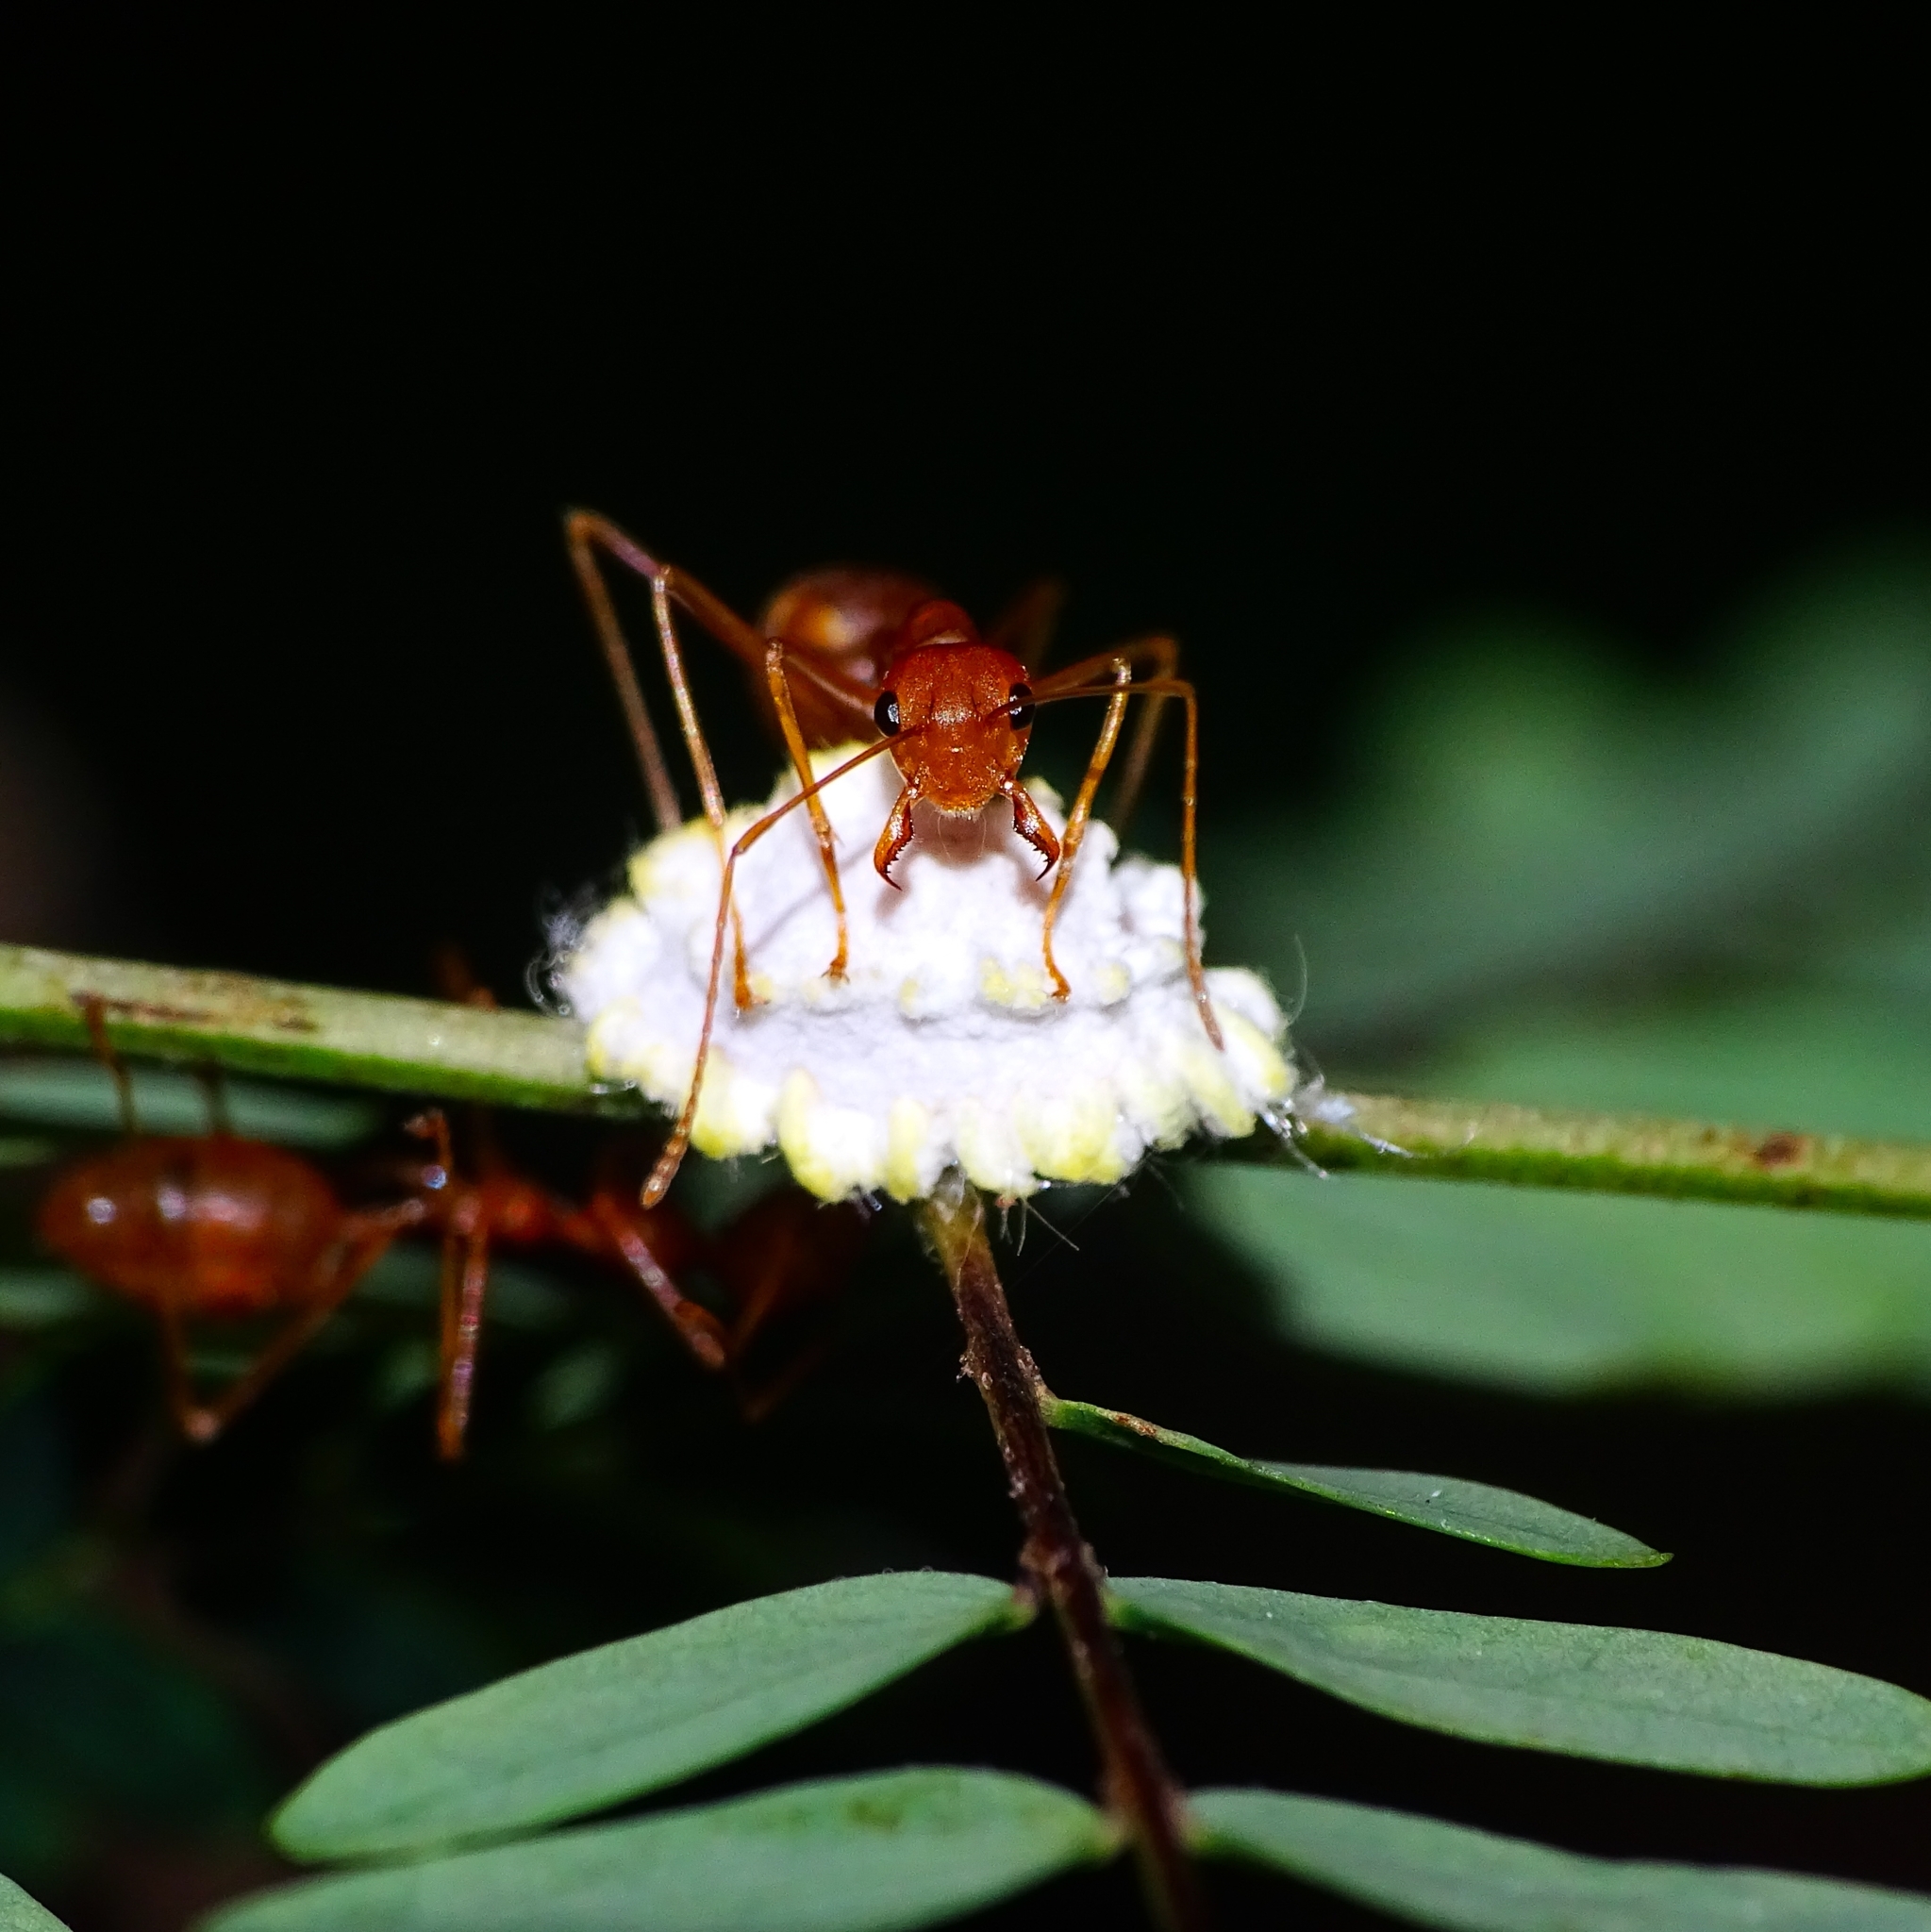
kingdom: Animalia
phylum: Arthropoda
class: Insecta
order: Hemiptera
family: Margarodidae
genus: Icerya
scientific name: Icerya seychellarum
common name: Iceplant scale
